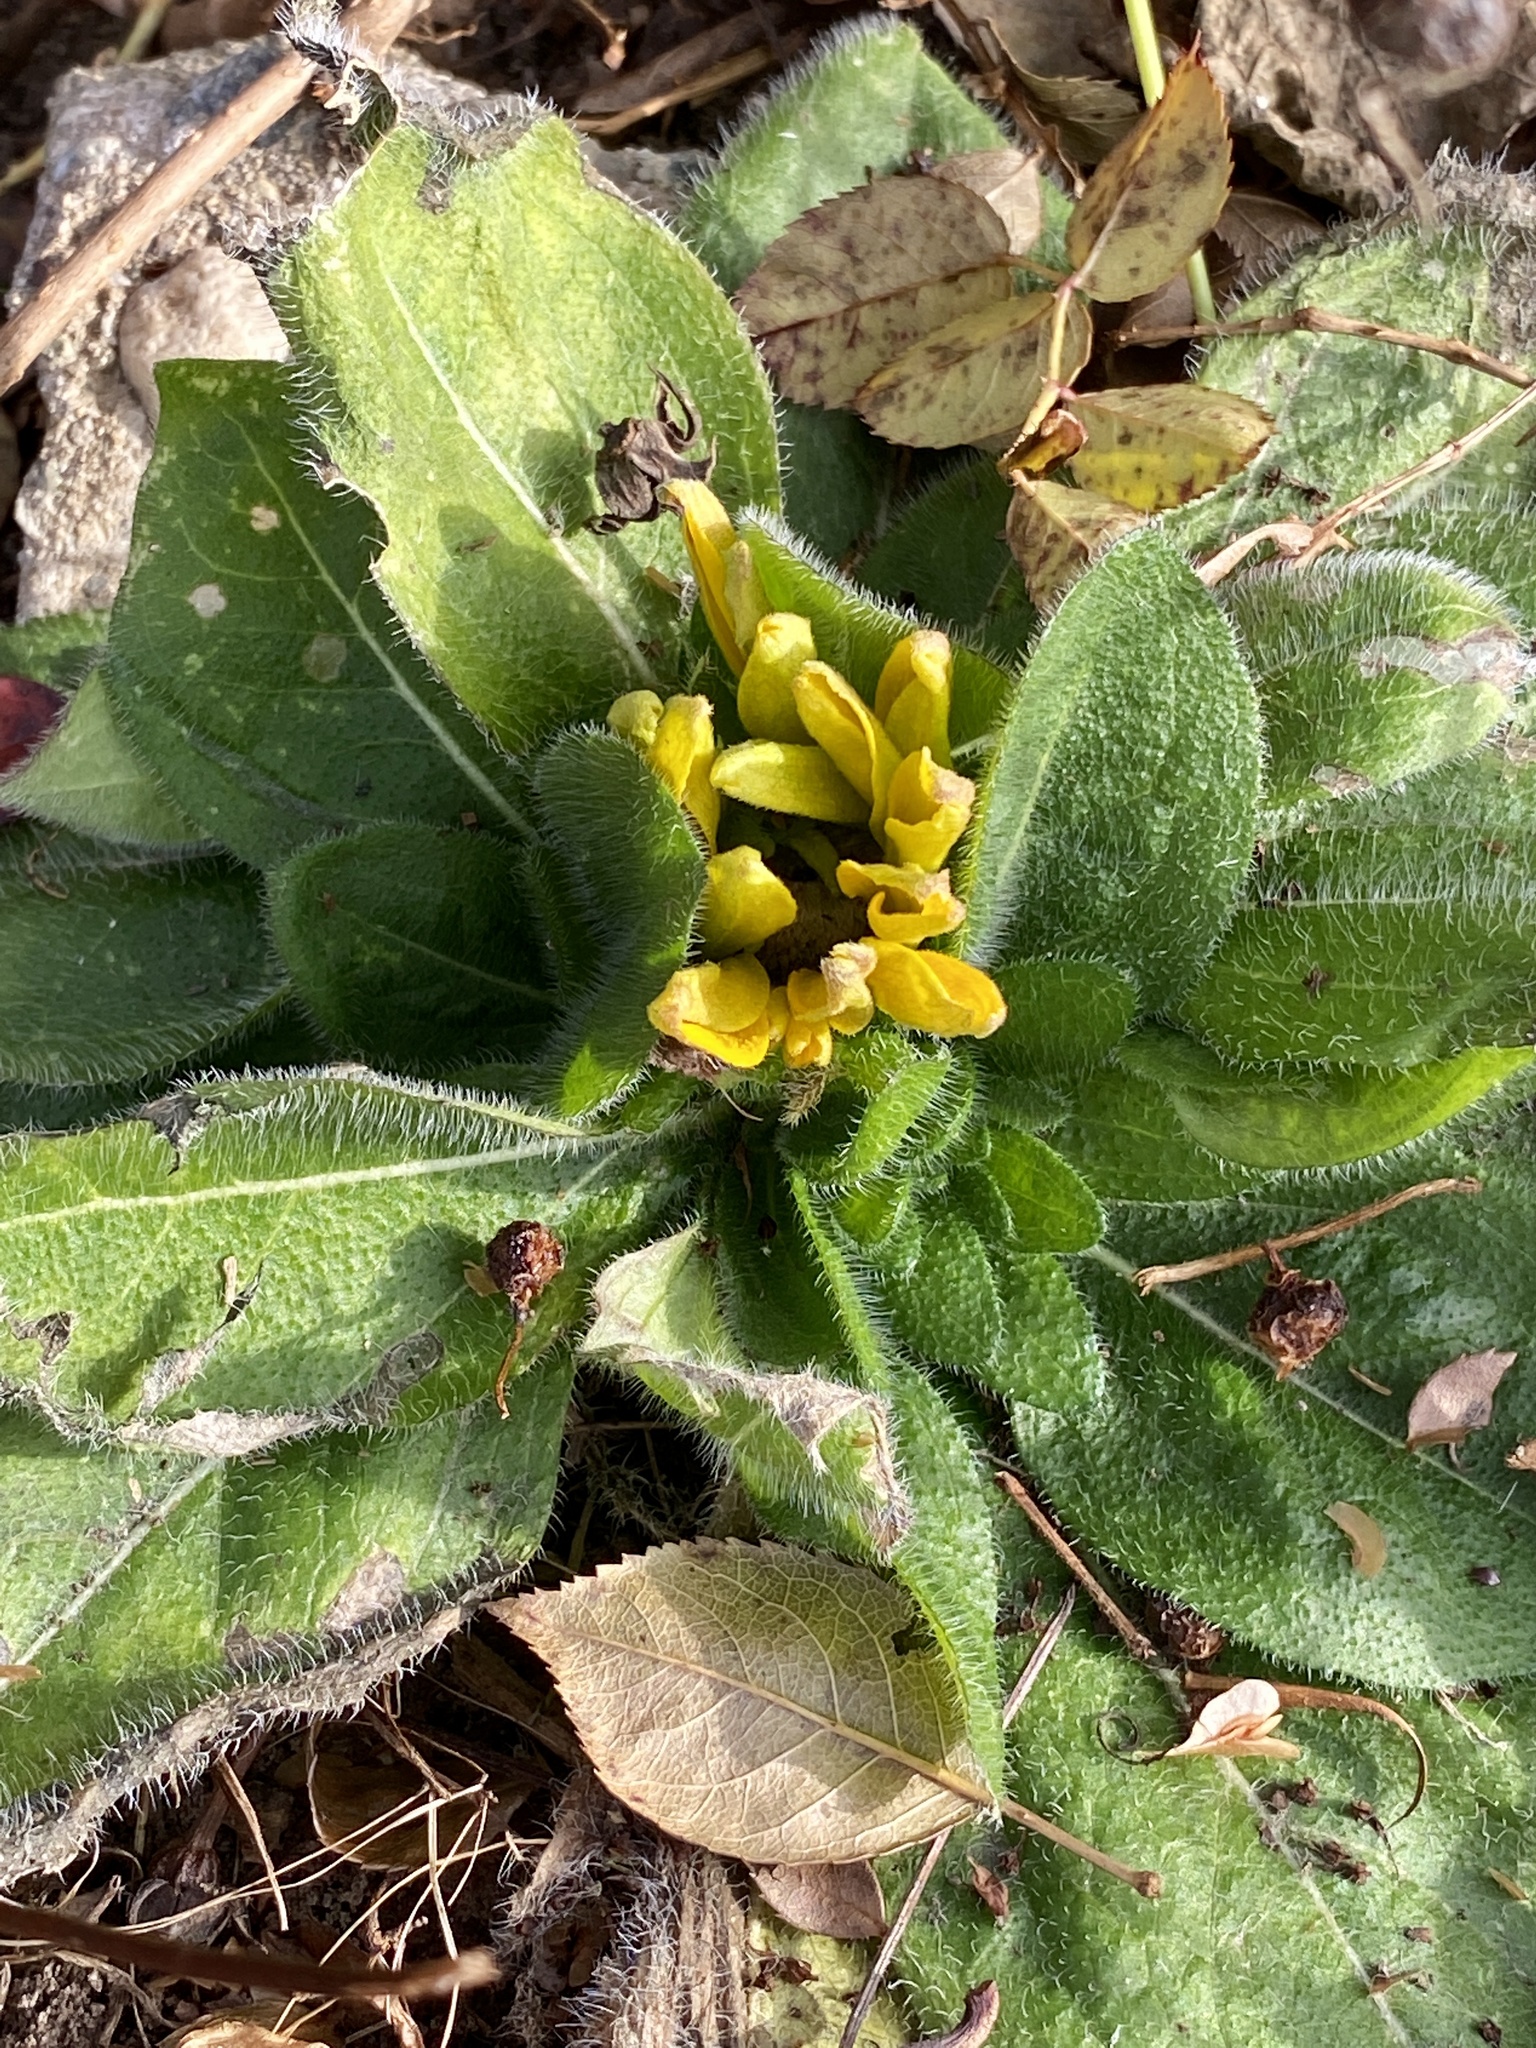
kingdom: Plantae
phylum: Tracheophyta
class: Magnoliopsida
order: Asterales
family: Asteraceae
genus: Rudbeckia
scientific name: Rudbeckia hirta
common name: Black-eyed-susan
